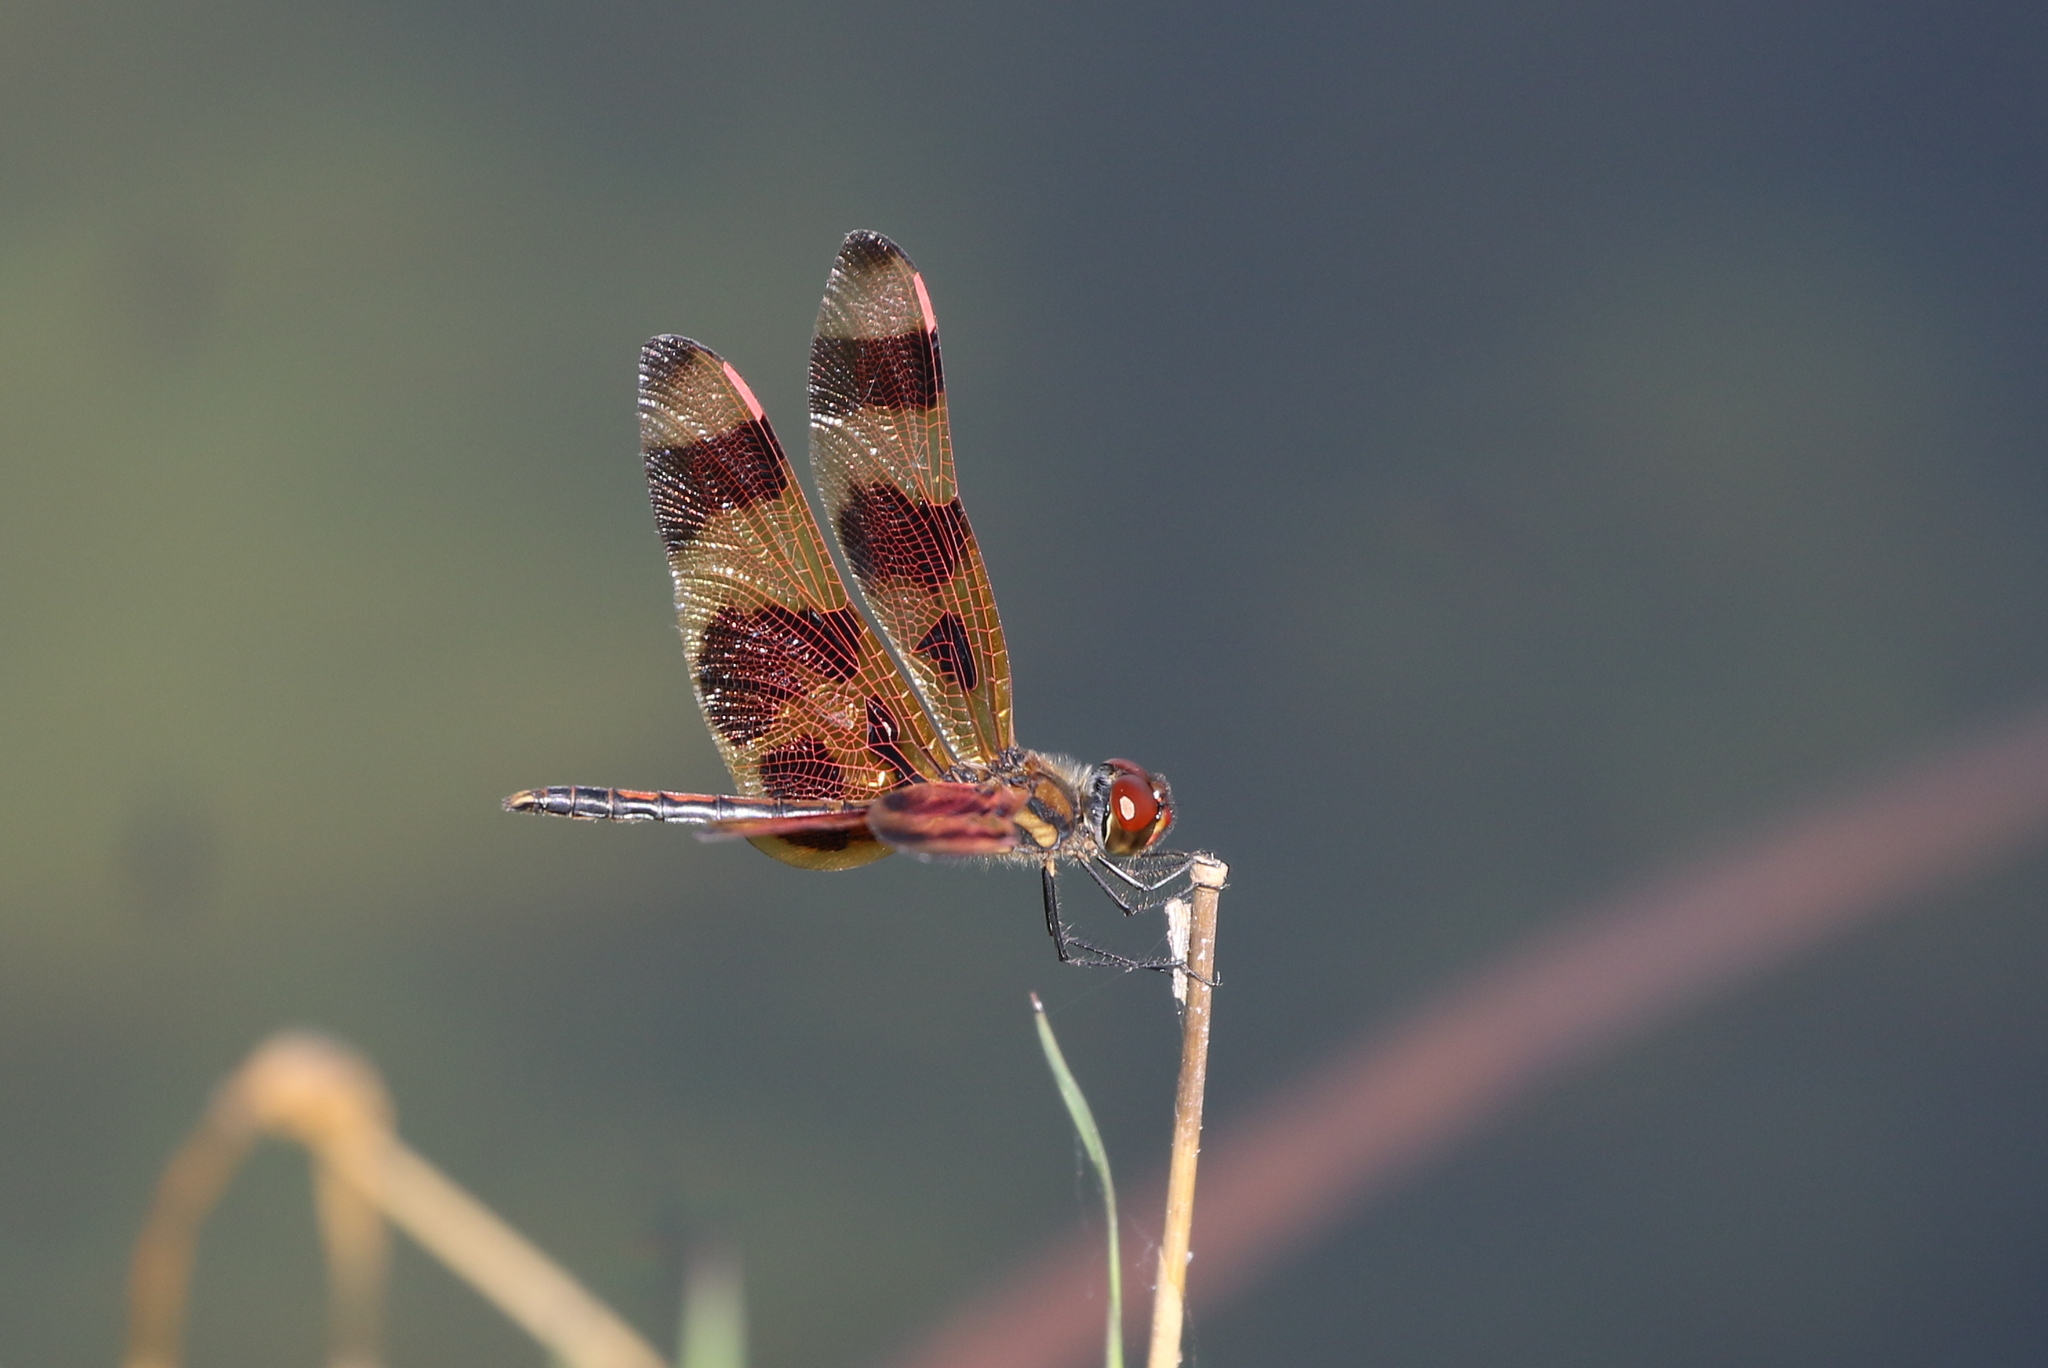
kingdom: Animalia
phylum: Arthropoda
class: Insecta
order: Odonata
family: Libellulidae
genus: Celithemis
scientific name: Celithemis eponina
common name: Halloween pennant
